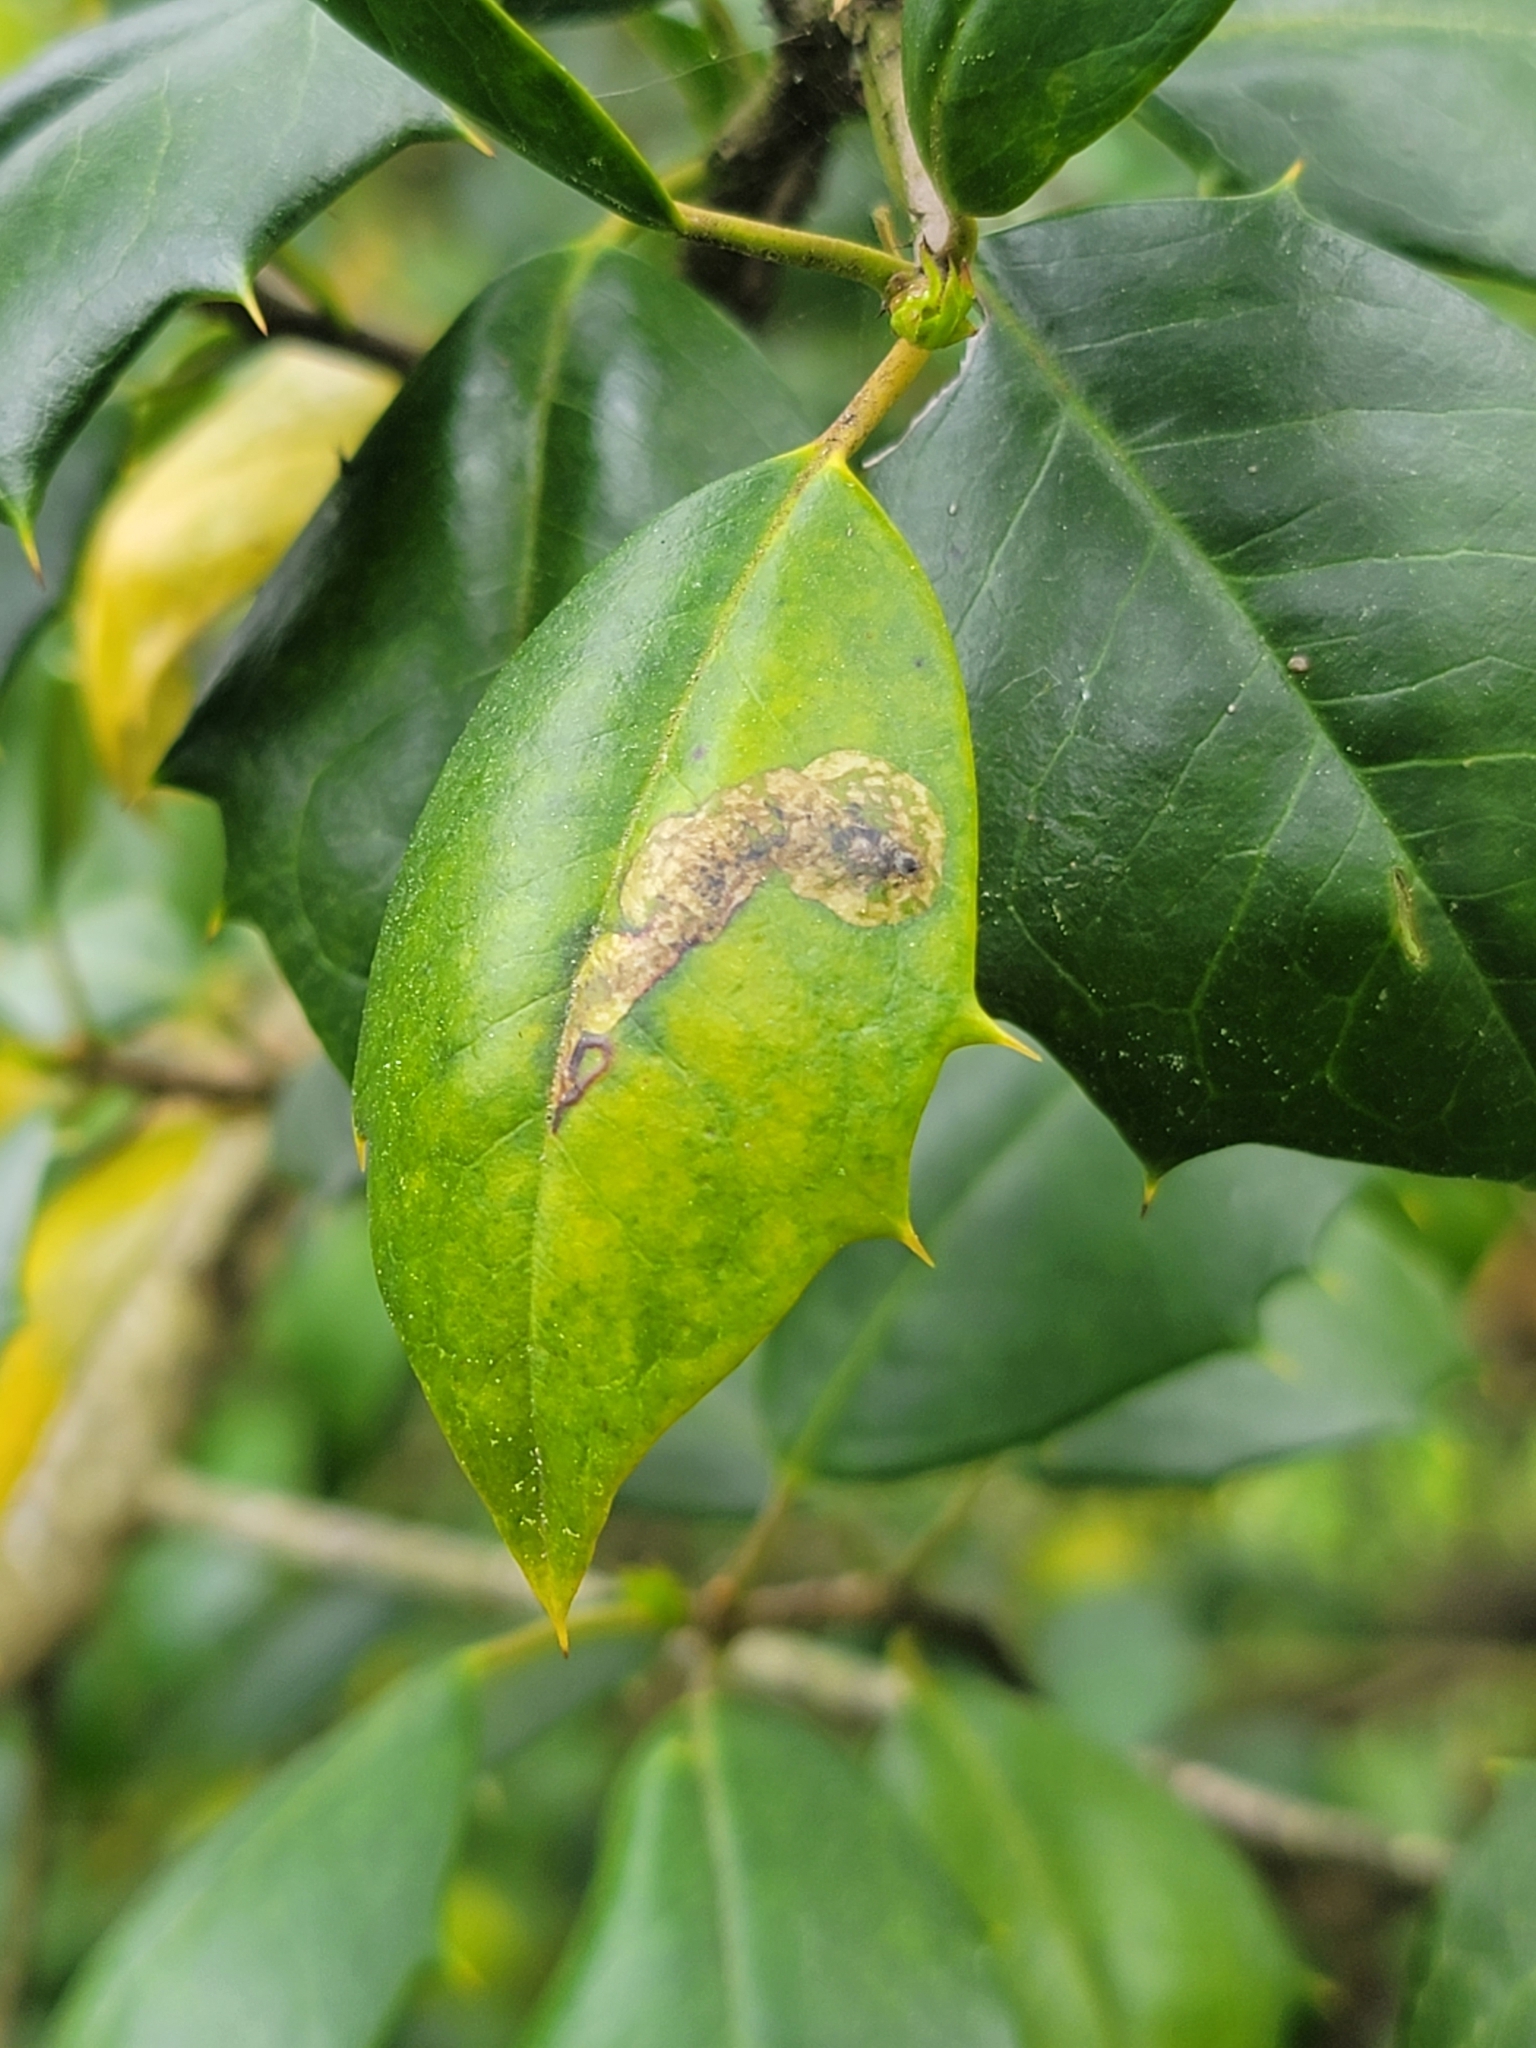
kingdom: Animalia
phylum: Arthropoda
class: Insecta
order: Diptera
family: Agromyzidae
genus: Phytomyza
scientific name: Phytomyza ilicicola
